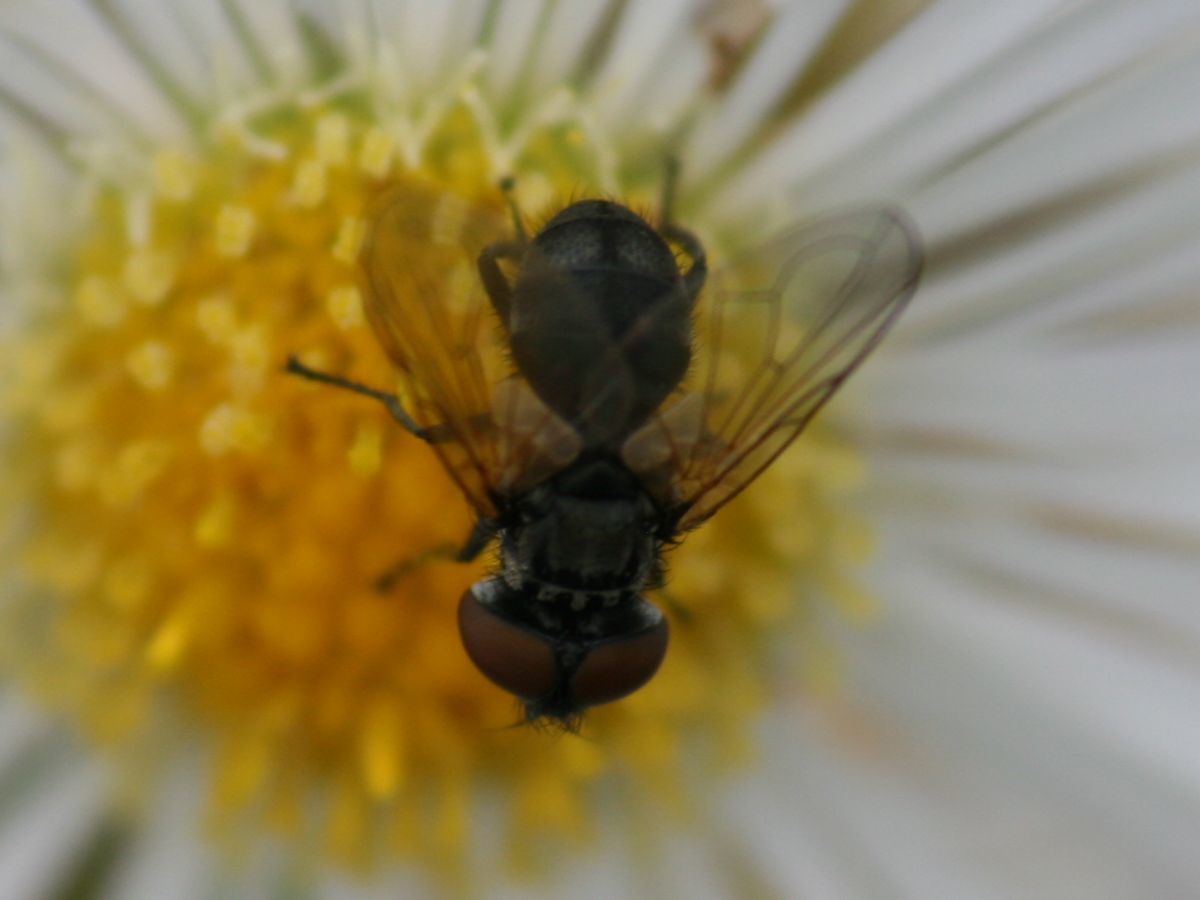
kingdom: Animalia
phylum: Arthropoda
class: Insecta
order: Diptera
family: Tachinidae
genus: Phasia
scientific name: Phasia obesa
